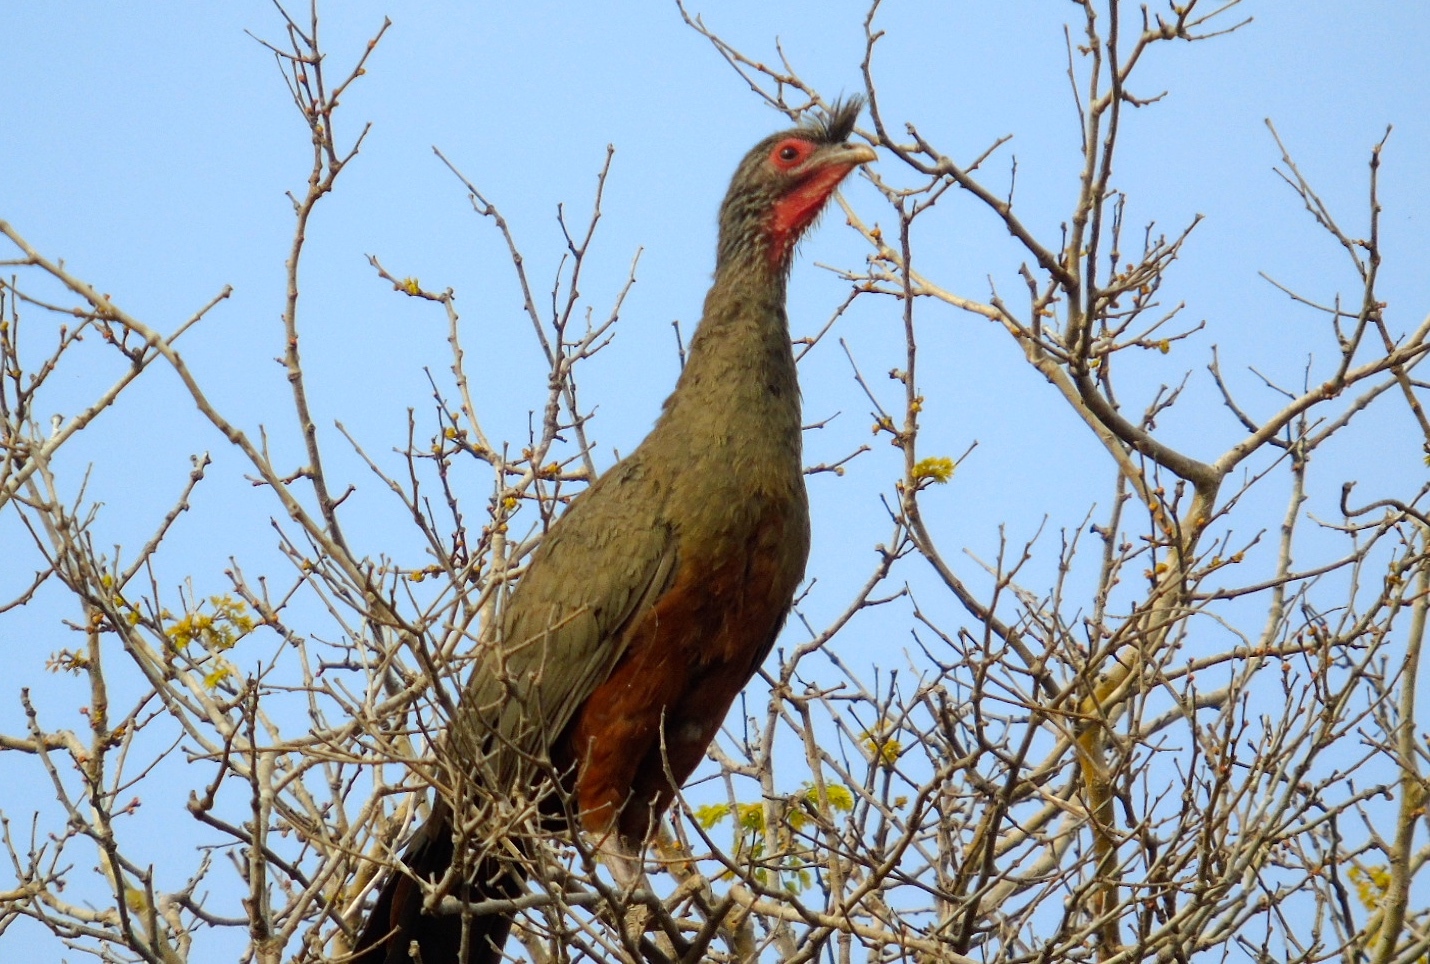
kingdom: Animalia
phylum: Chordata
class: Aves
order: Galliformes
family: Cracidae
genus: Ortalis
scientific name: Ortalis wagleri
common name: Rufous-bellied chachalaca
